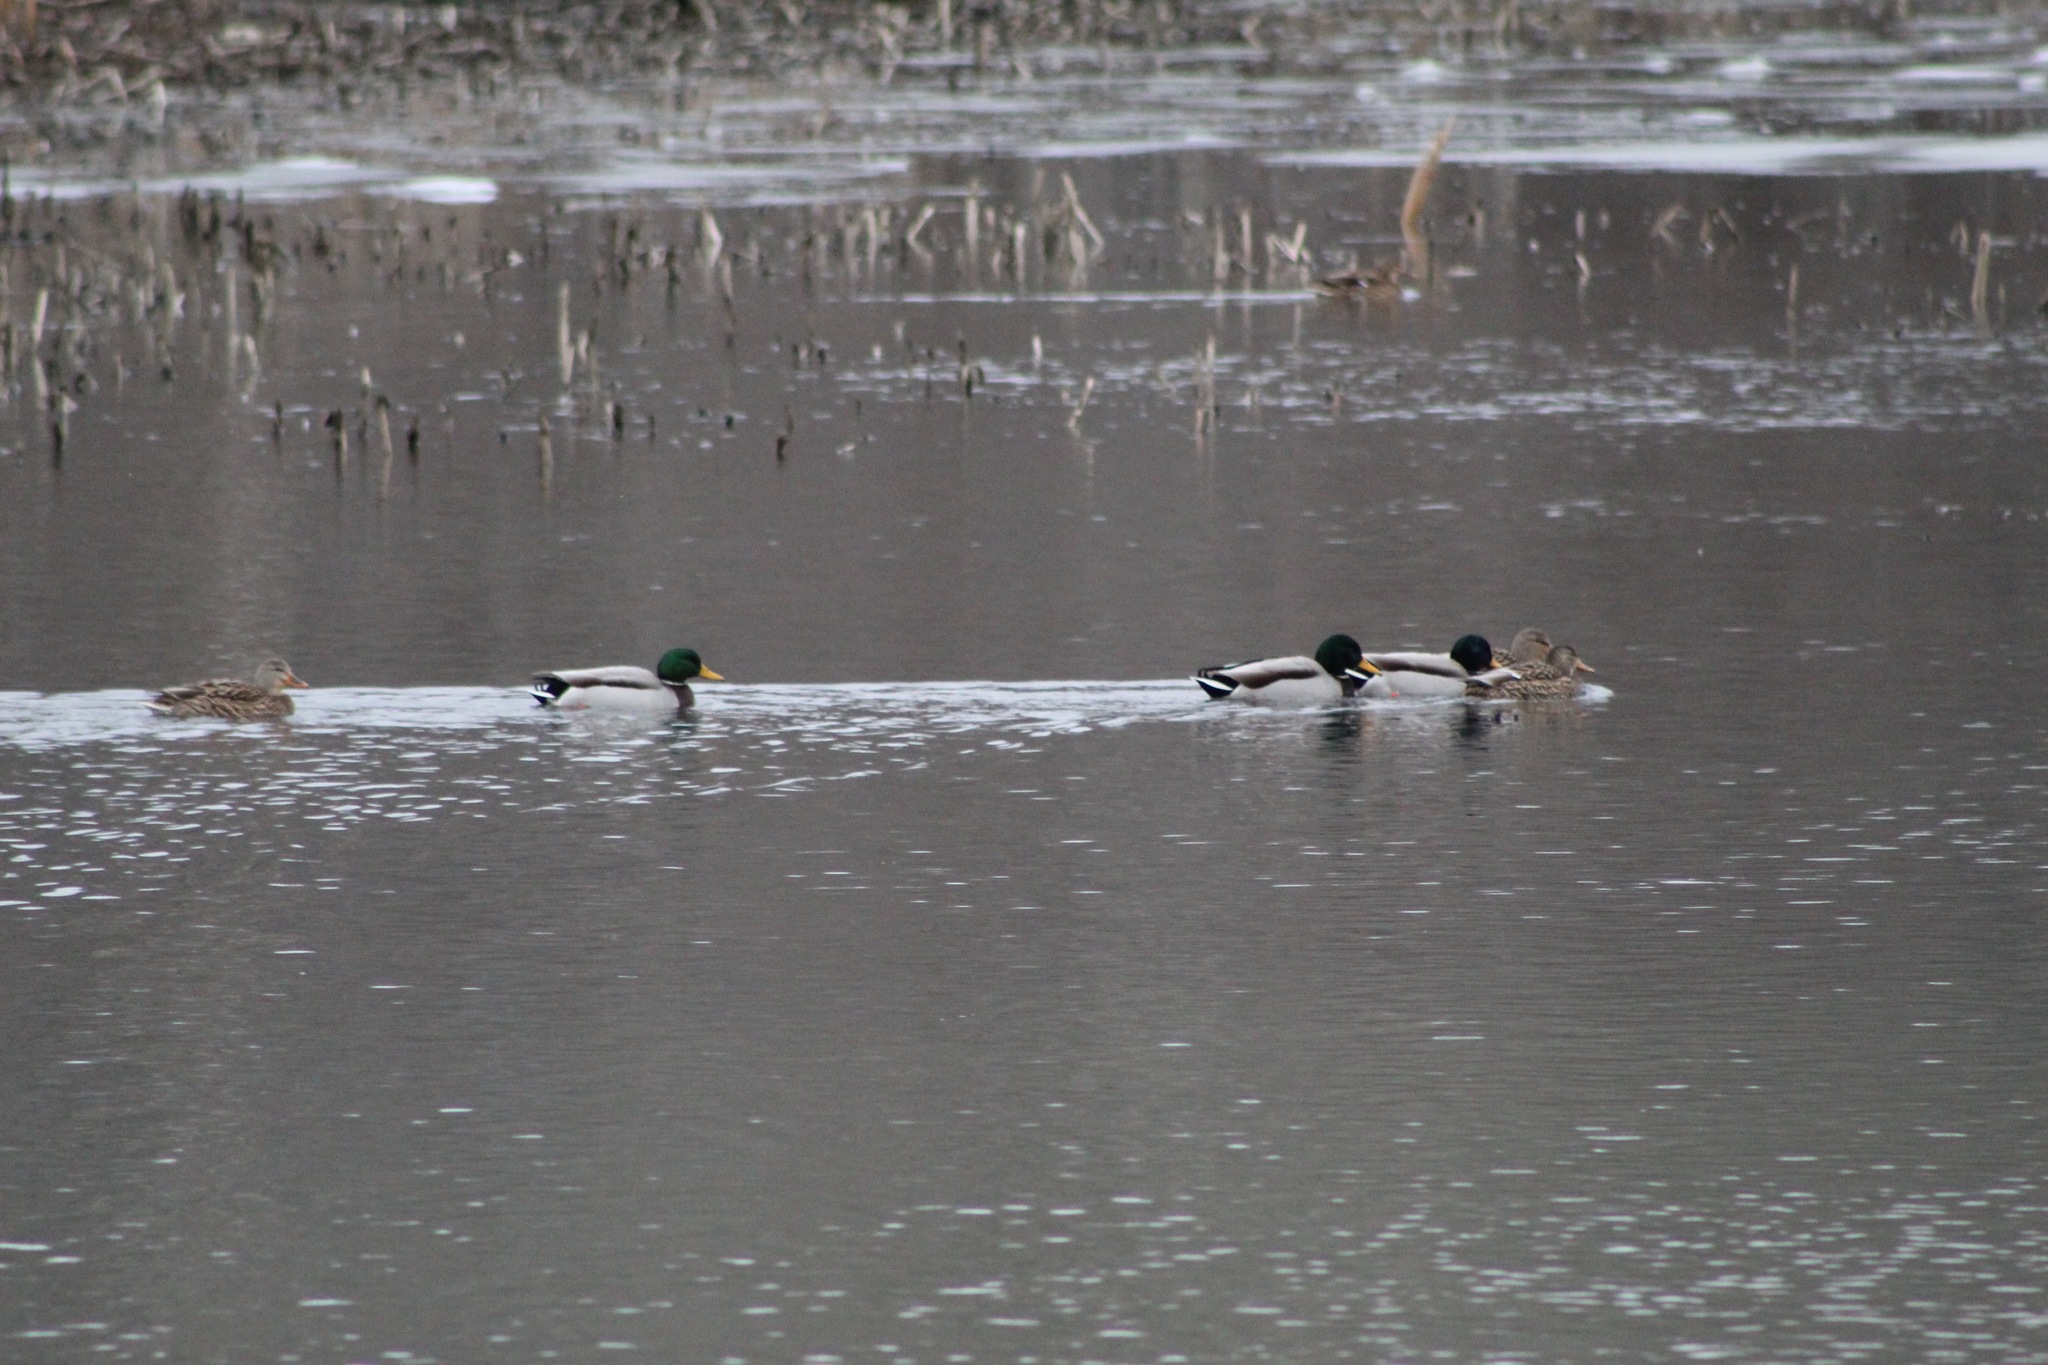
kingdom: Animalia
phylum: Chordata
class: Aves
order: Anseriformes
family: Anatidae
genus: Anas
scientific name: Anas platyrhynchos
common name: Mallard
